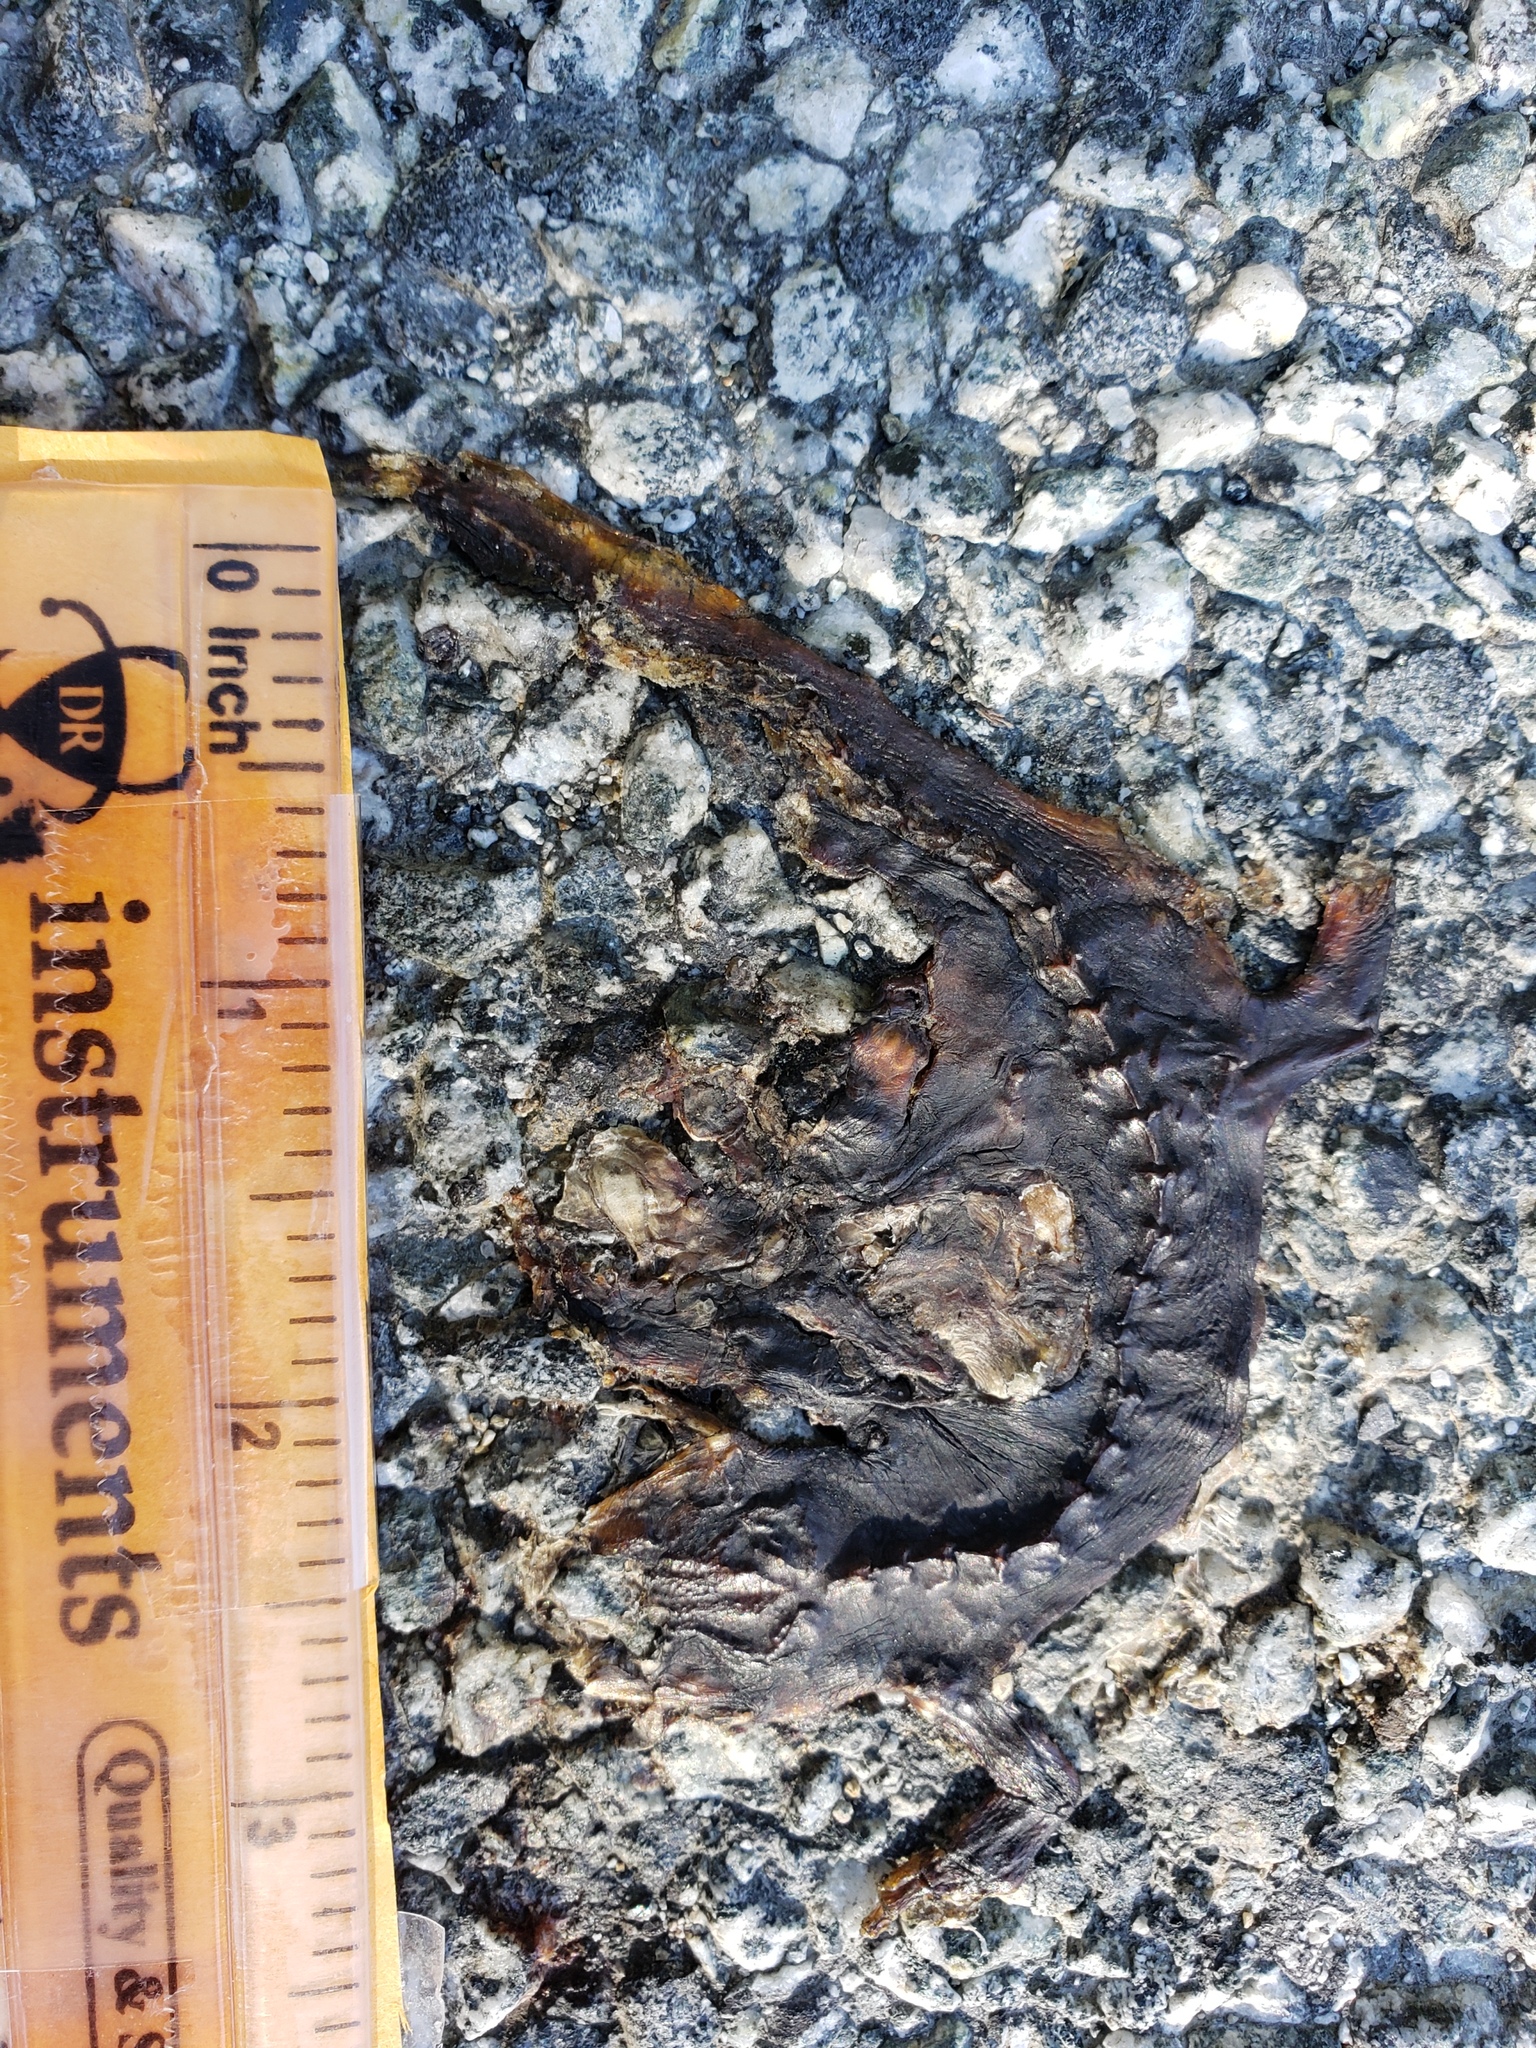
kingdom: Animalia
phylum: Chordata
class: Amphibia
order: Caudata
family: Salamandridae
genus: Taricha
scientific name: Taricha
